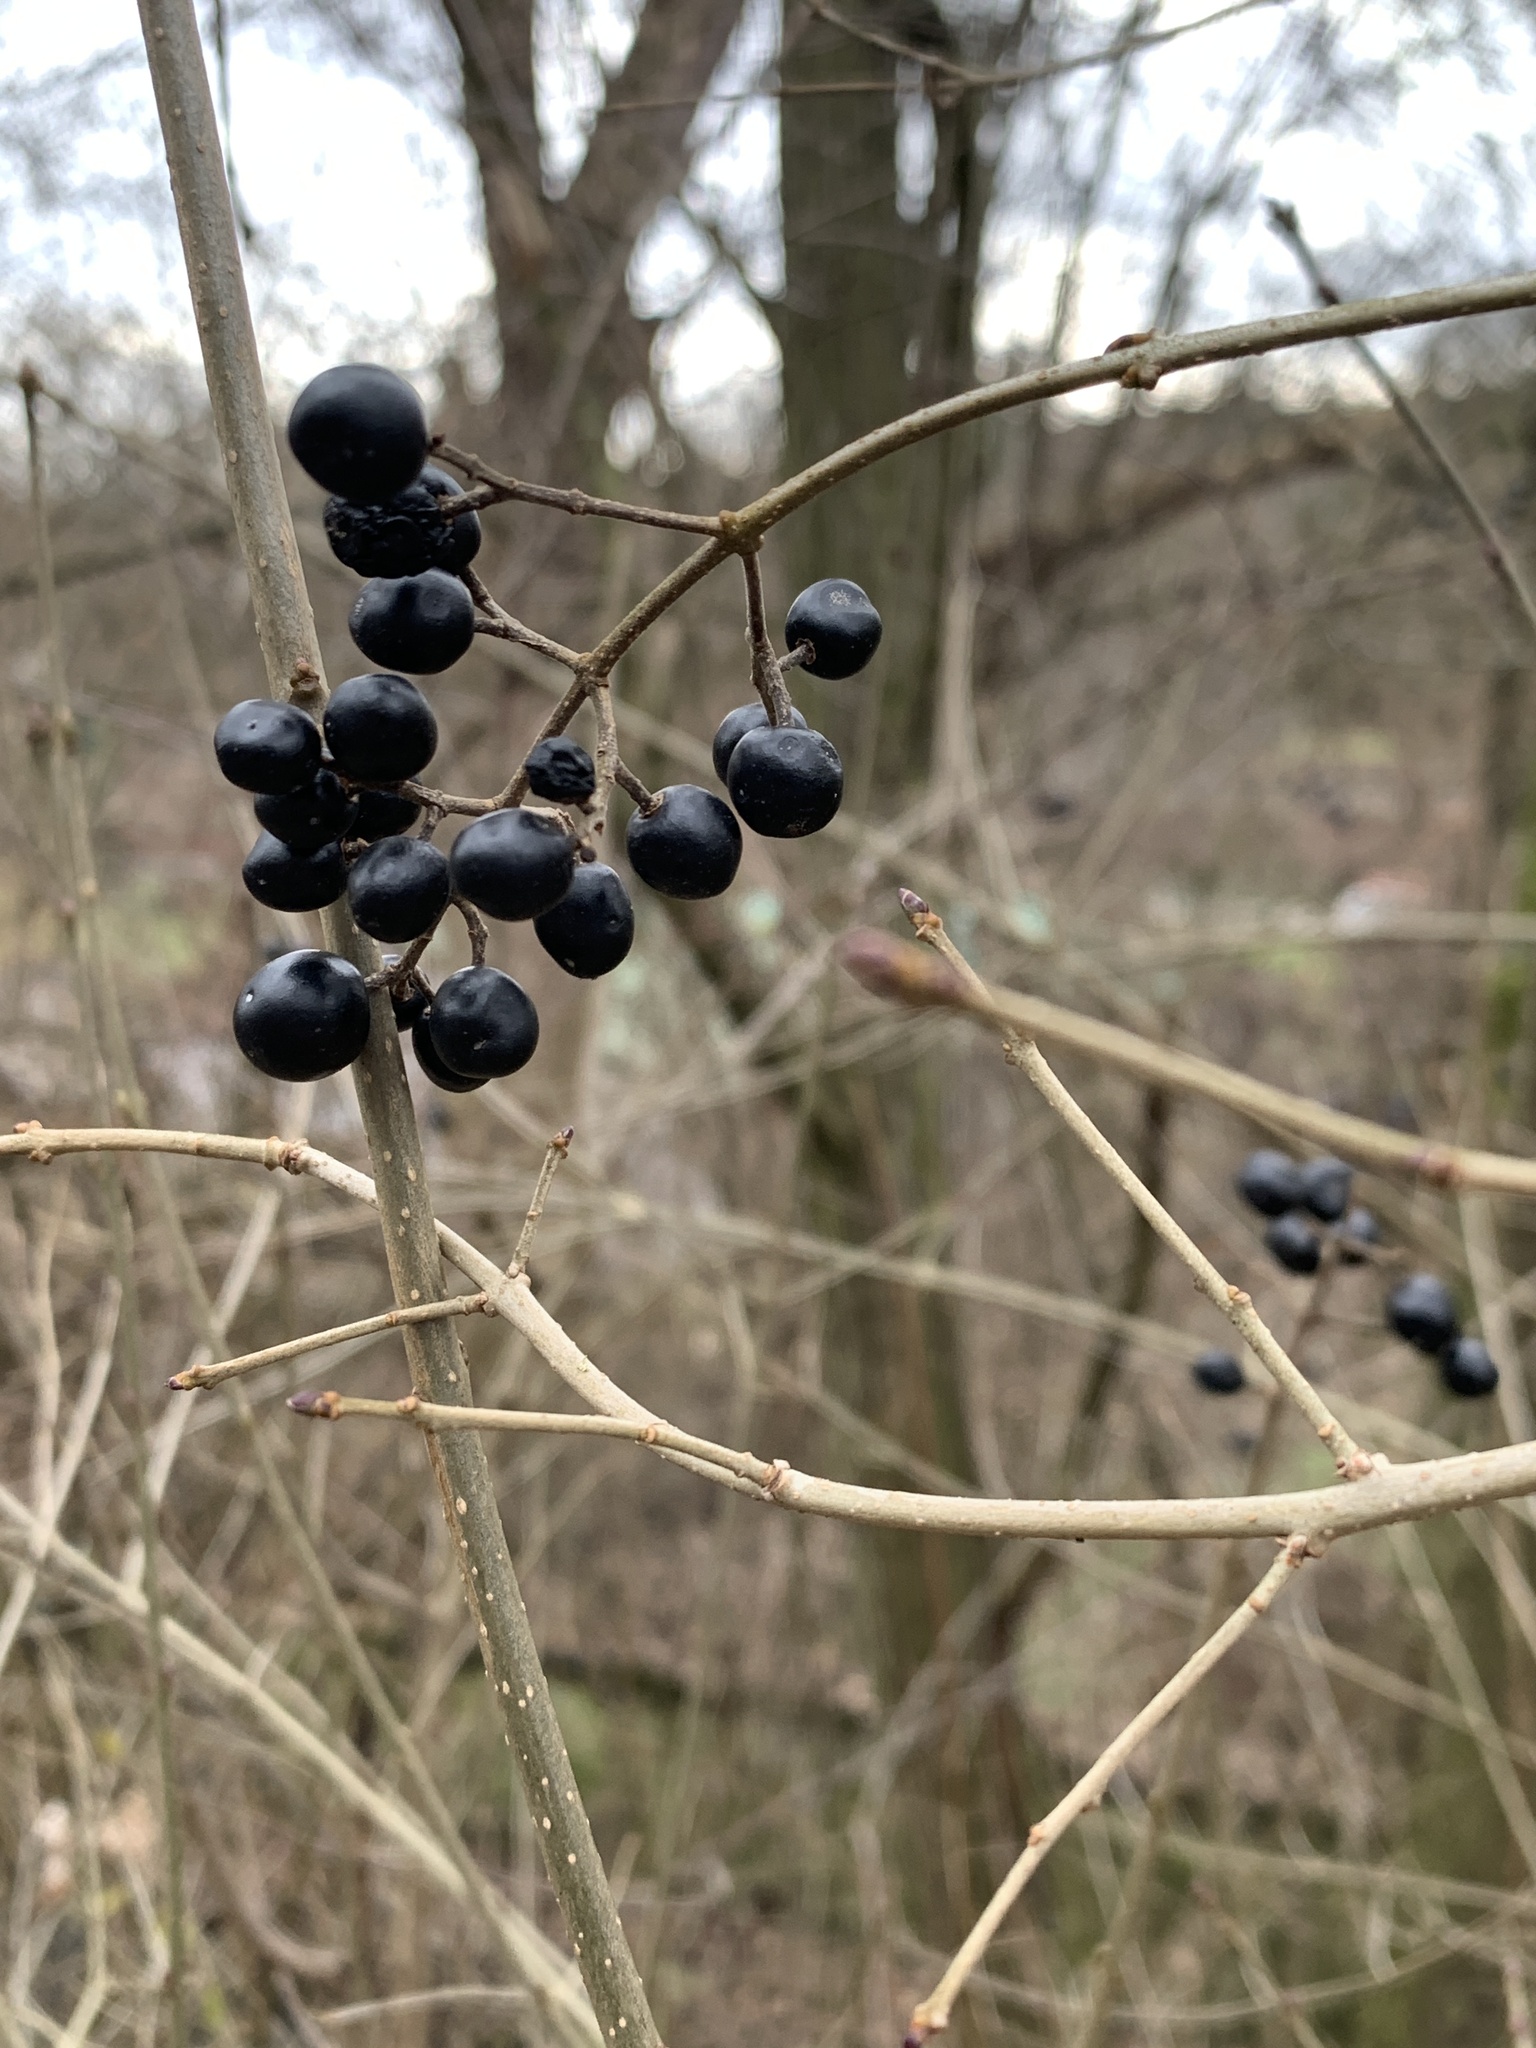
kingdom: Plantae
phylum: Tracheophyta
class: Magnoliopsida
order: Lamiales
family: Oleaceae
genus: Ligustrum
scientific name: Ligustrum vulgare
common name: Wild privet
